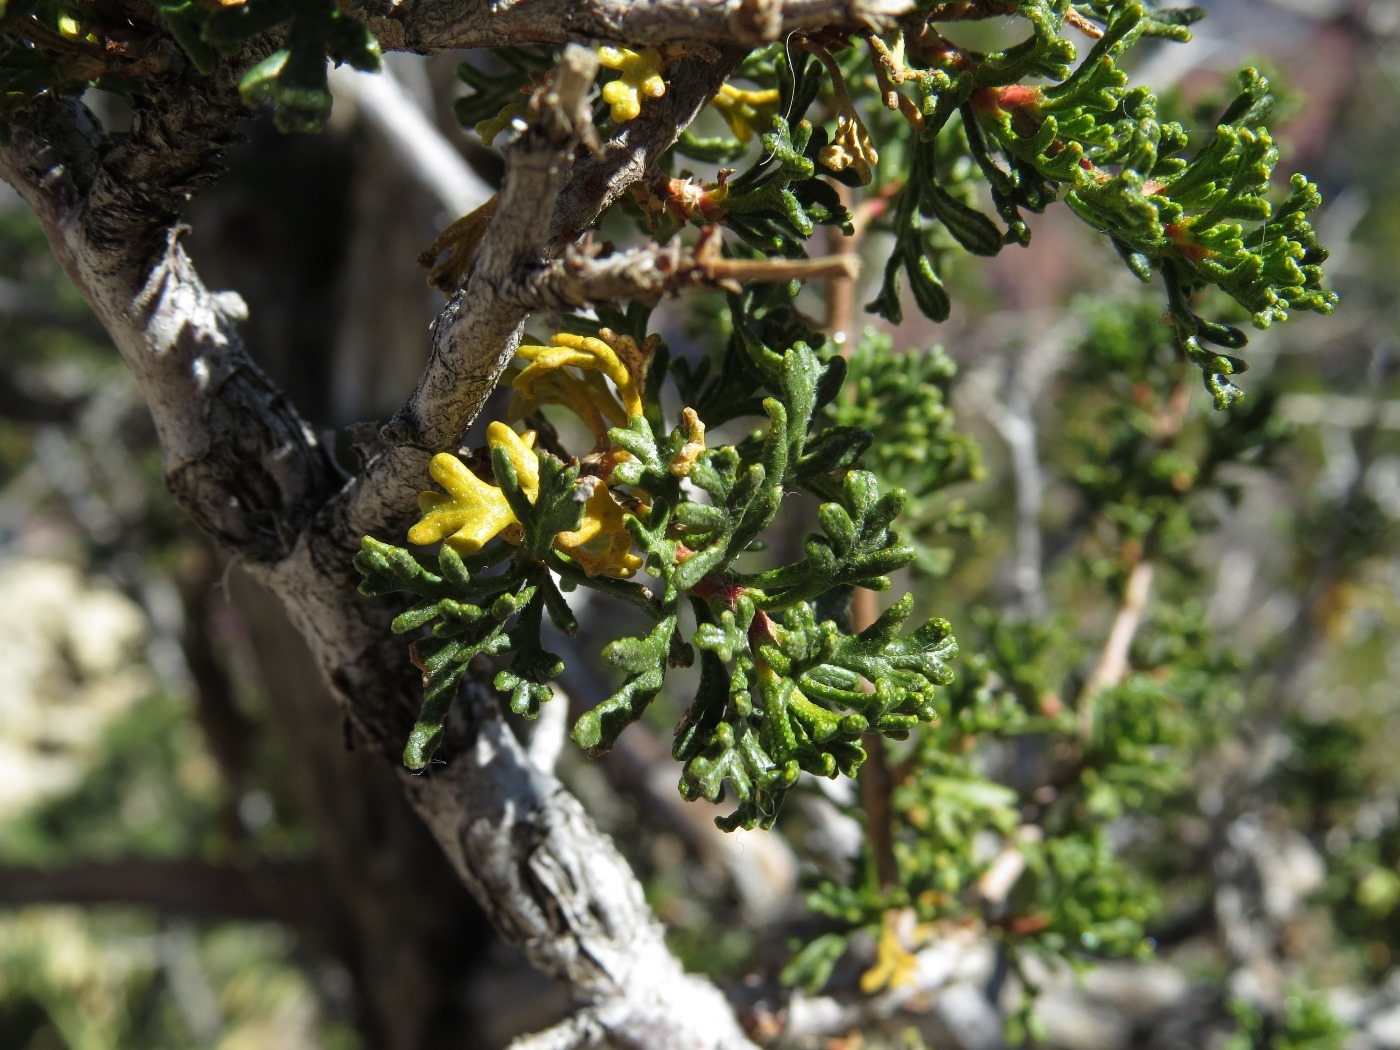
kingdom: Plantae
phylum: Tracheophyta
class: Magnoliopsida
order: Rosales
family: Rosaceae
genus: Purshia
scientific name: Purshia stansburiana
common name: Stansbury's cliffrose
